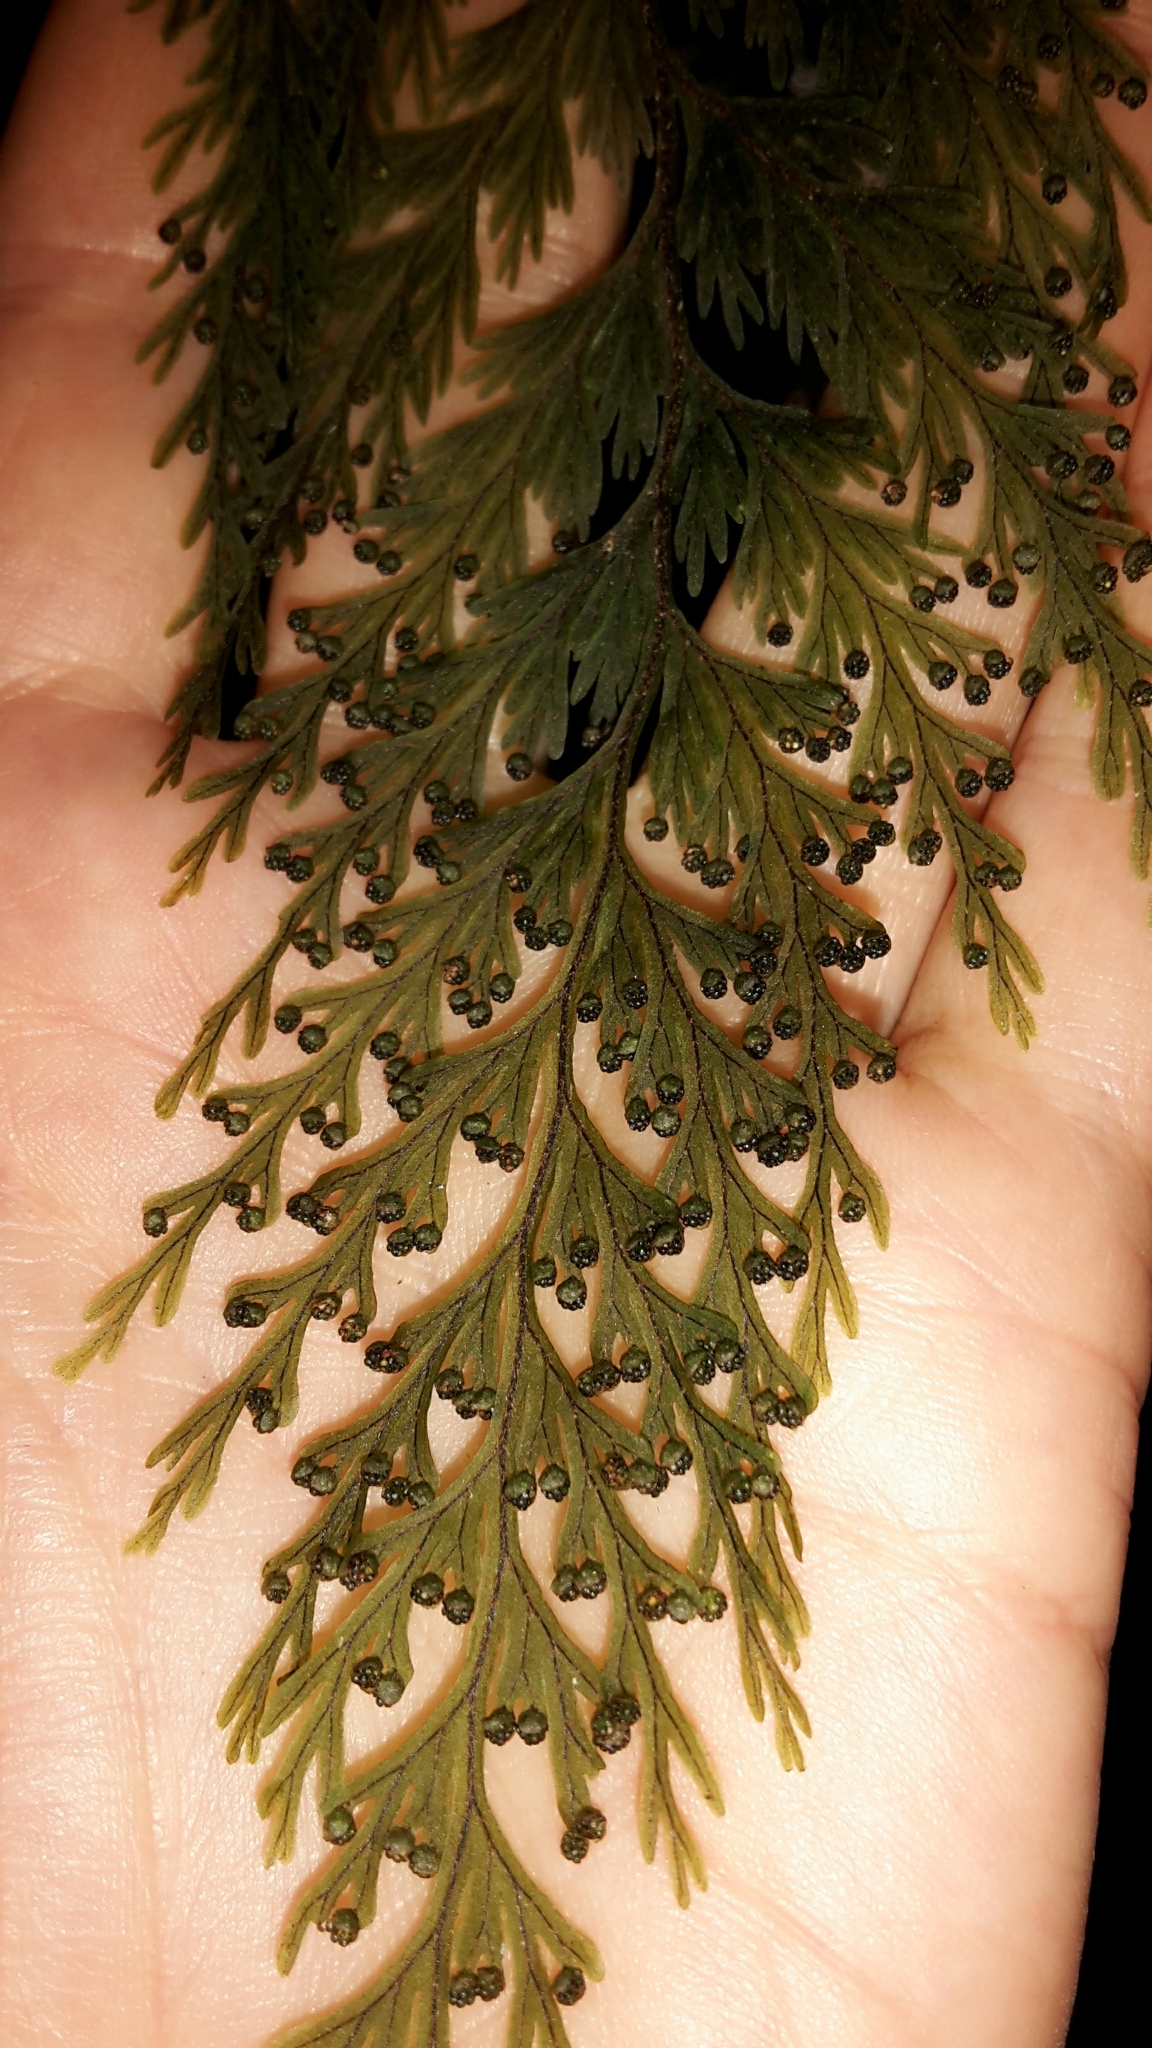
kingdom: Plantae
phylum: Tracheophyta
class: Polypodiopsida
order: Hymenophyllales
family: Hymenophyllaceae
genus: Hymenophyllum
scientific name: Hymenophyllum scabrum
